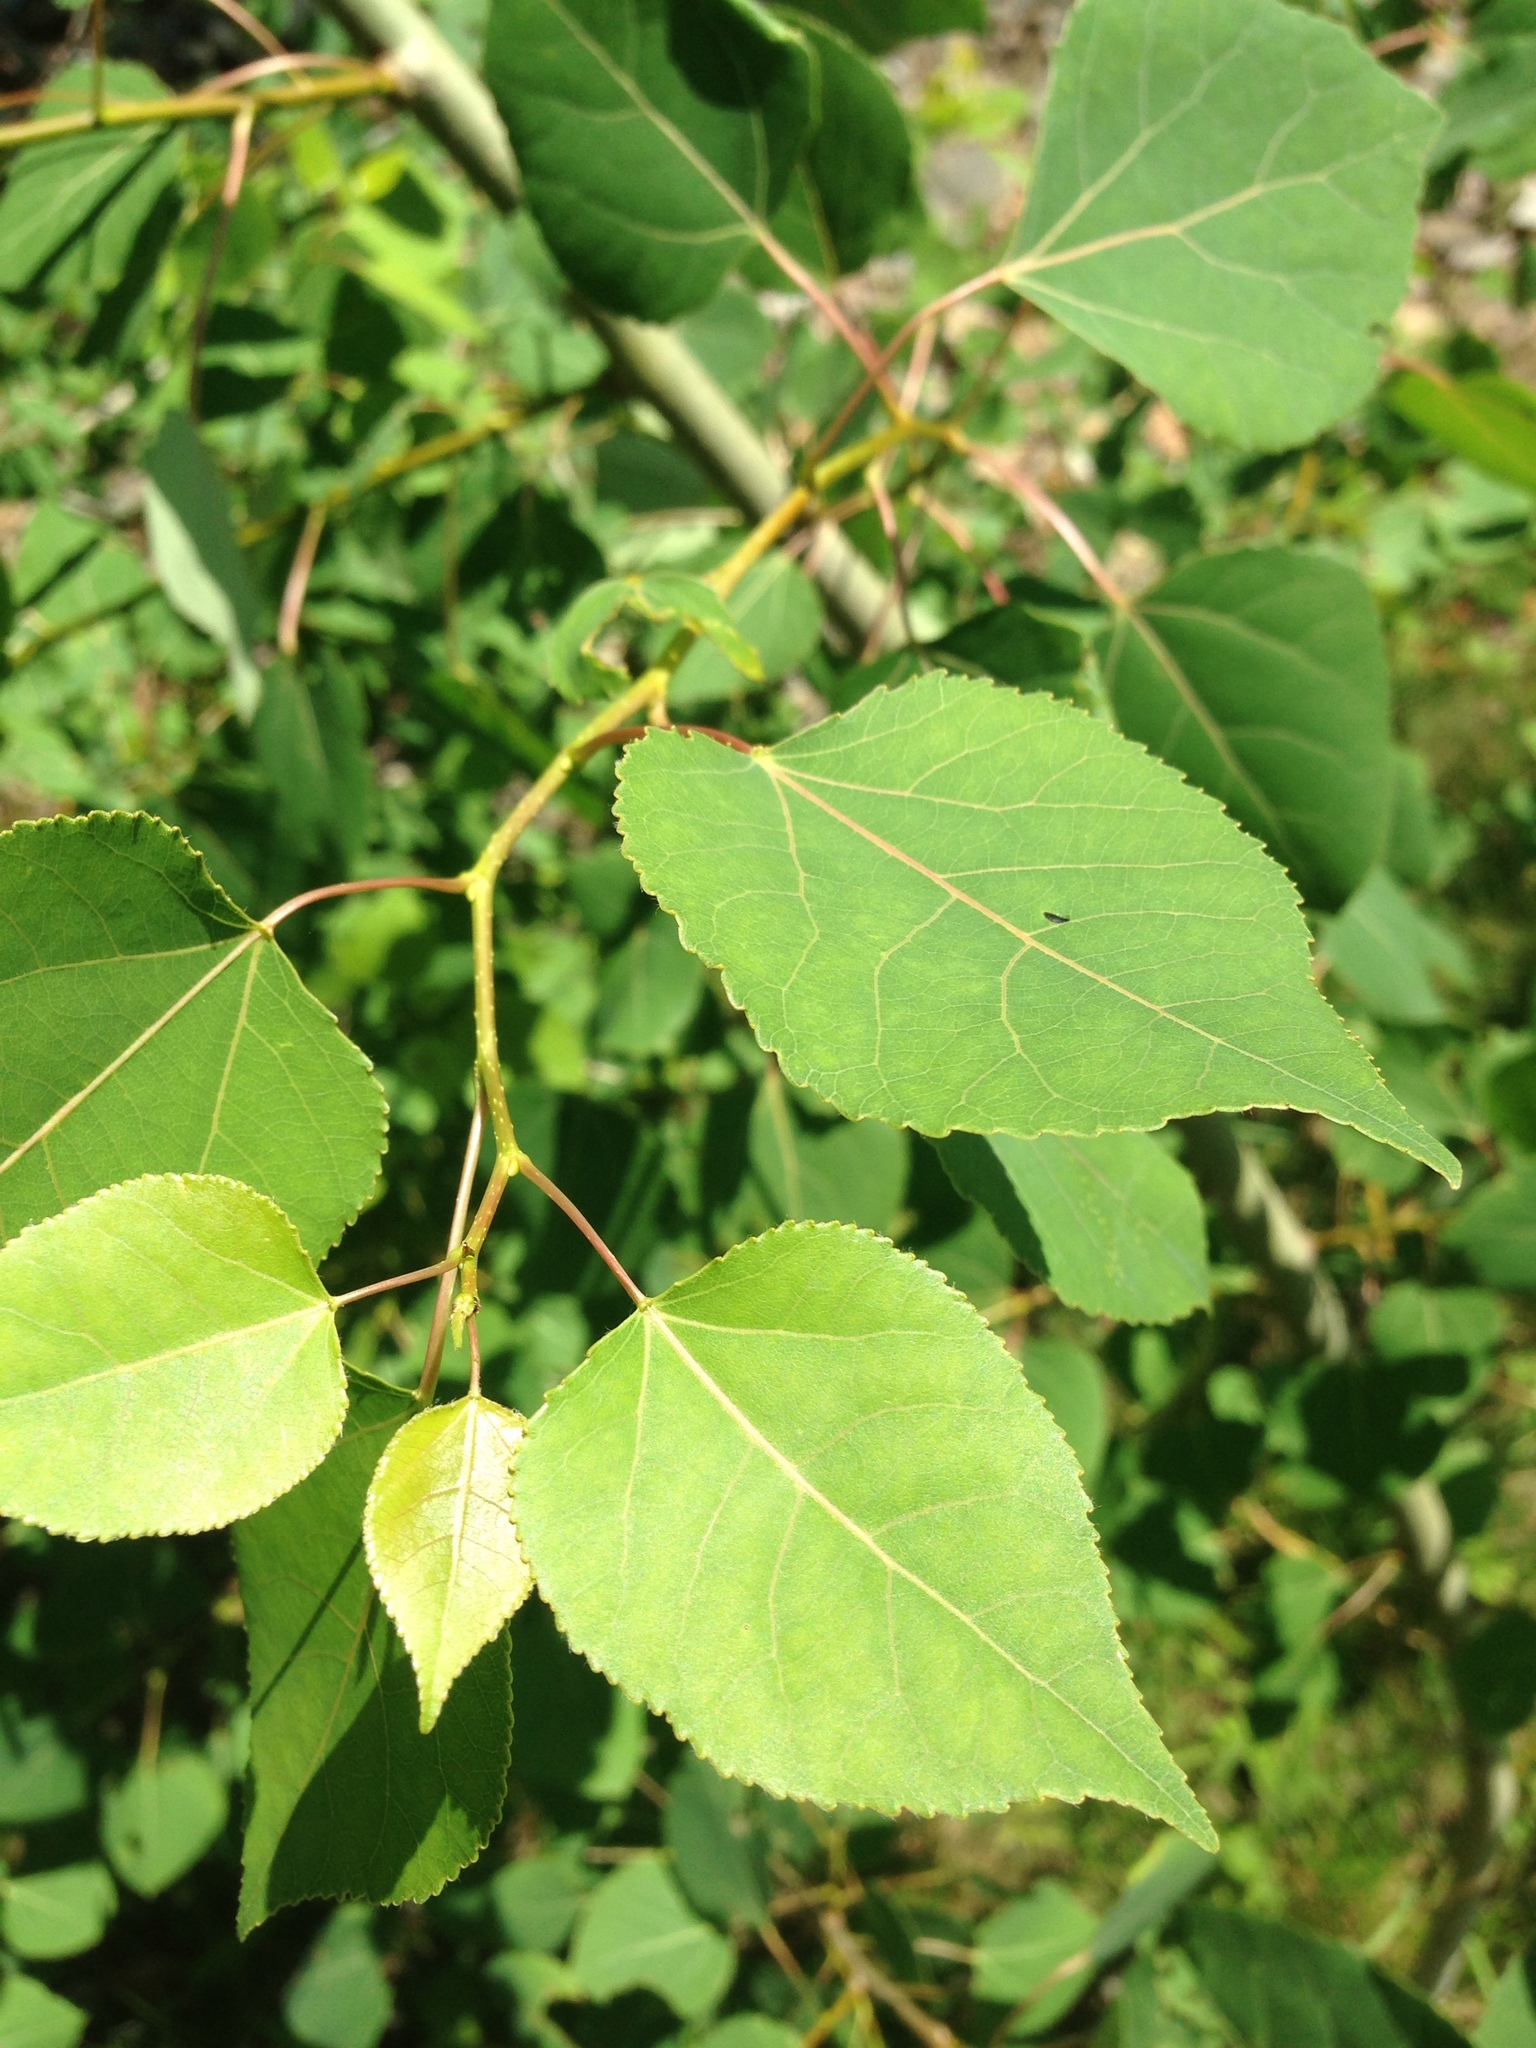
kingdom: Plantae
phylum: Tracheophyta
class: Magnoliopsida
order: Malpighiales
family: Salicaceae
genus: Populus
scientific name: Populus tremuloides
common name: Quaking aspen
